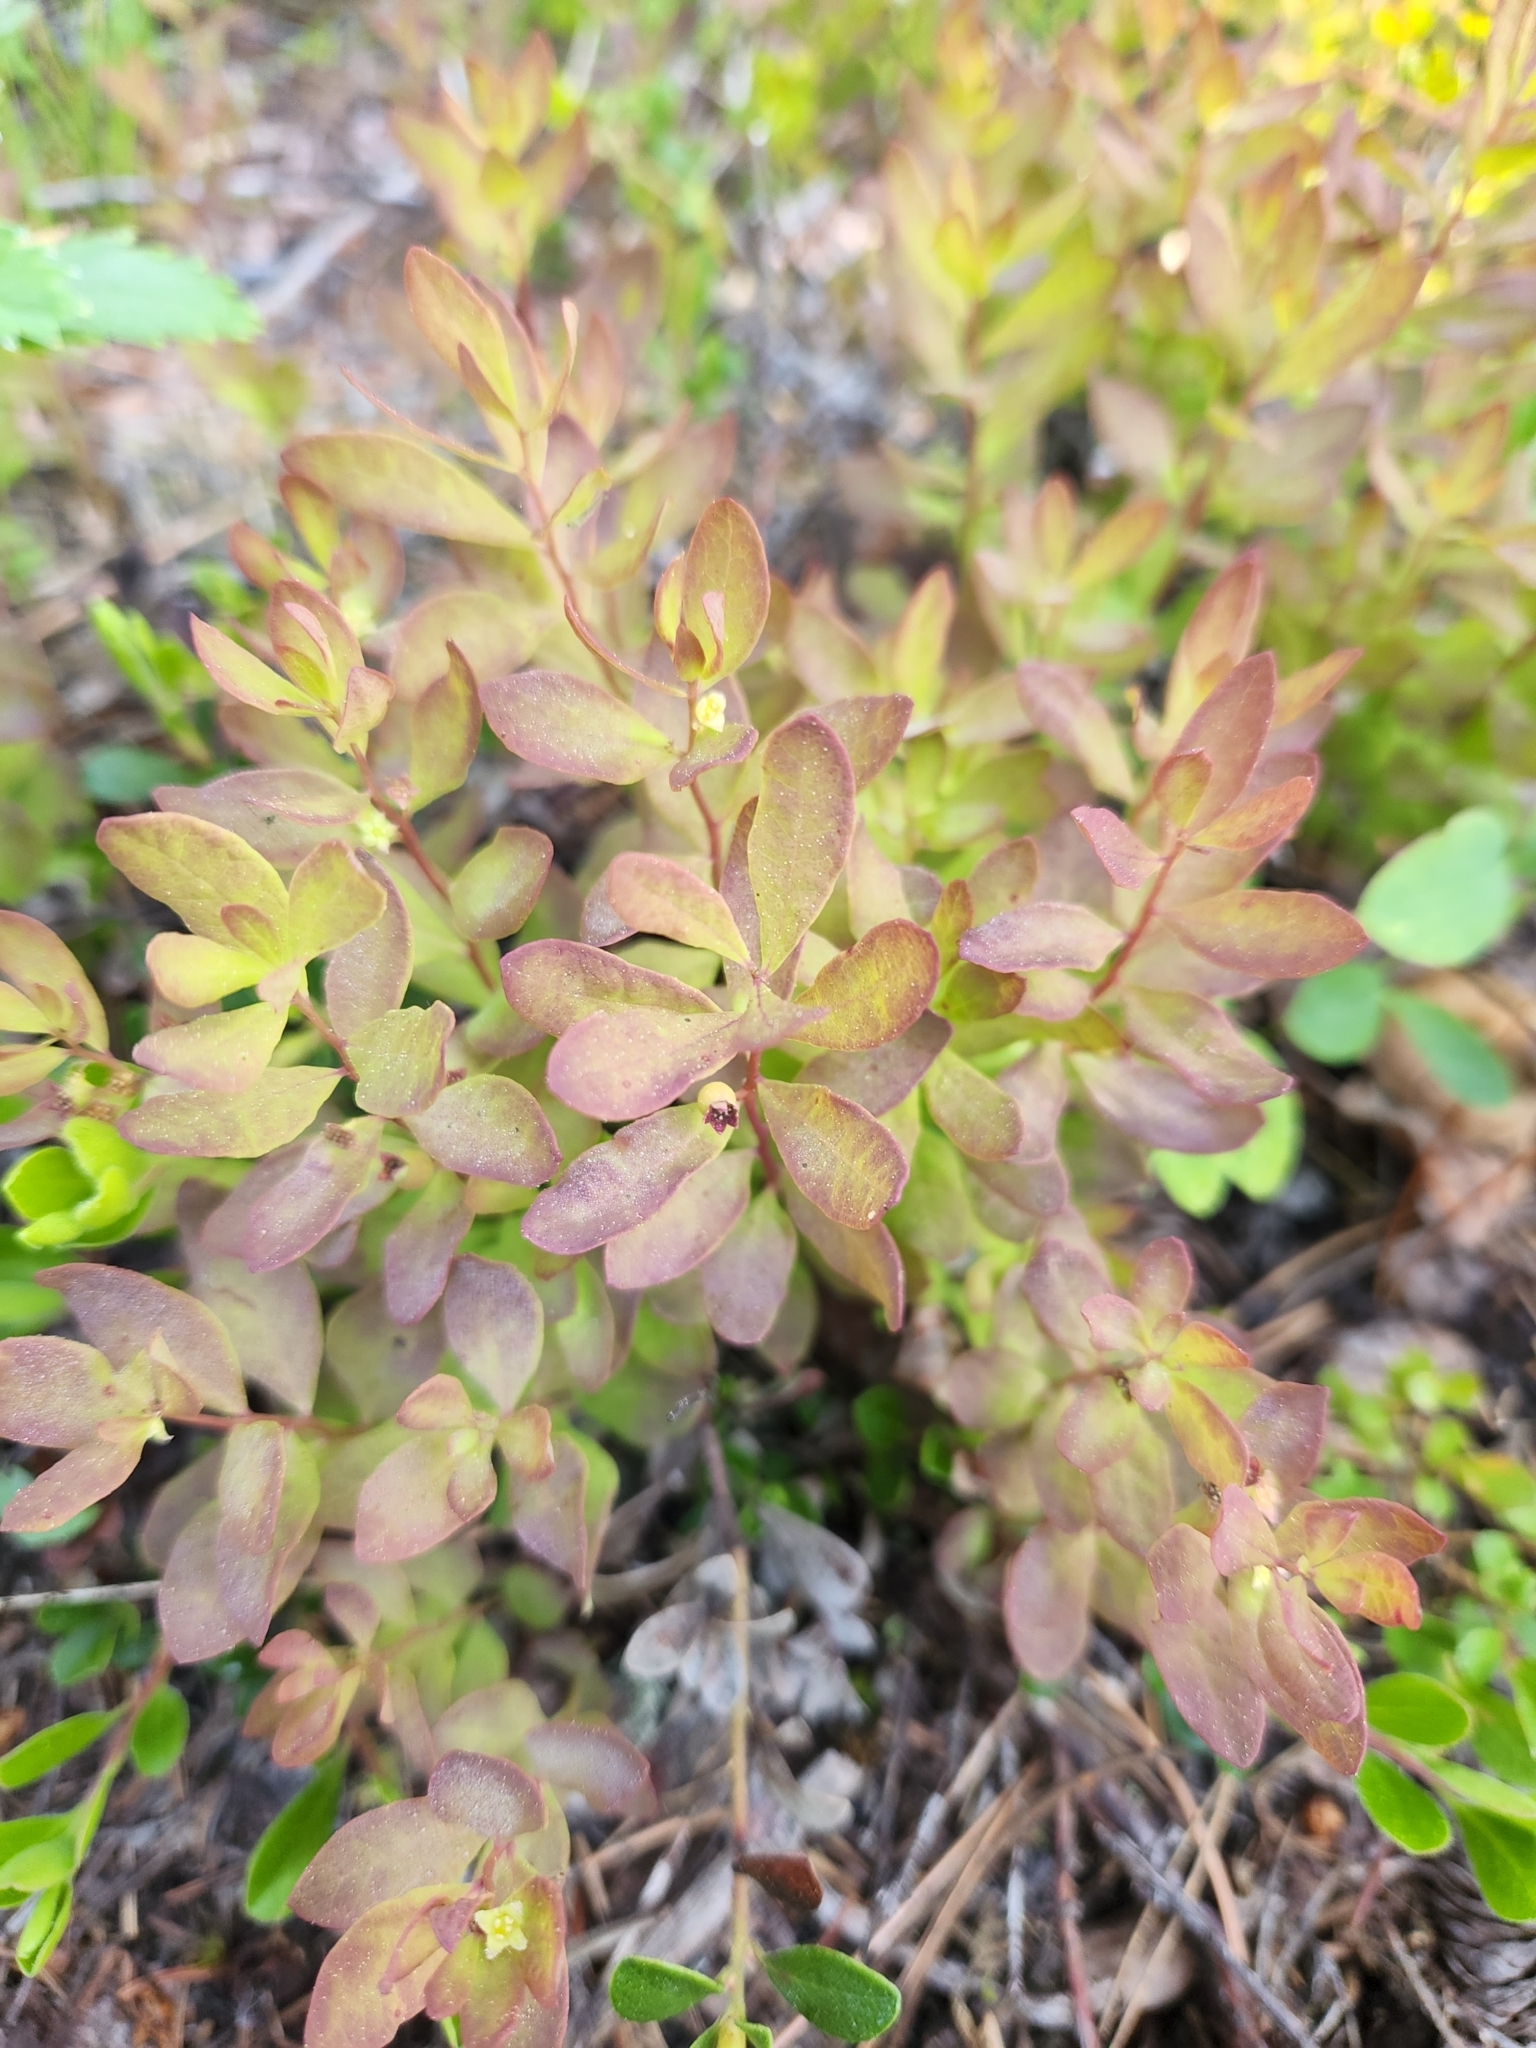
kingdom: Plantae
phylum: Tracheophyta
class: Magnoliopsida
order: Santalales
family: Comandraceae
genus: Geocaulon
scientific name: Geocaulon lividum
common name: Earthberry
